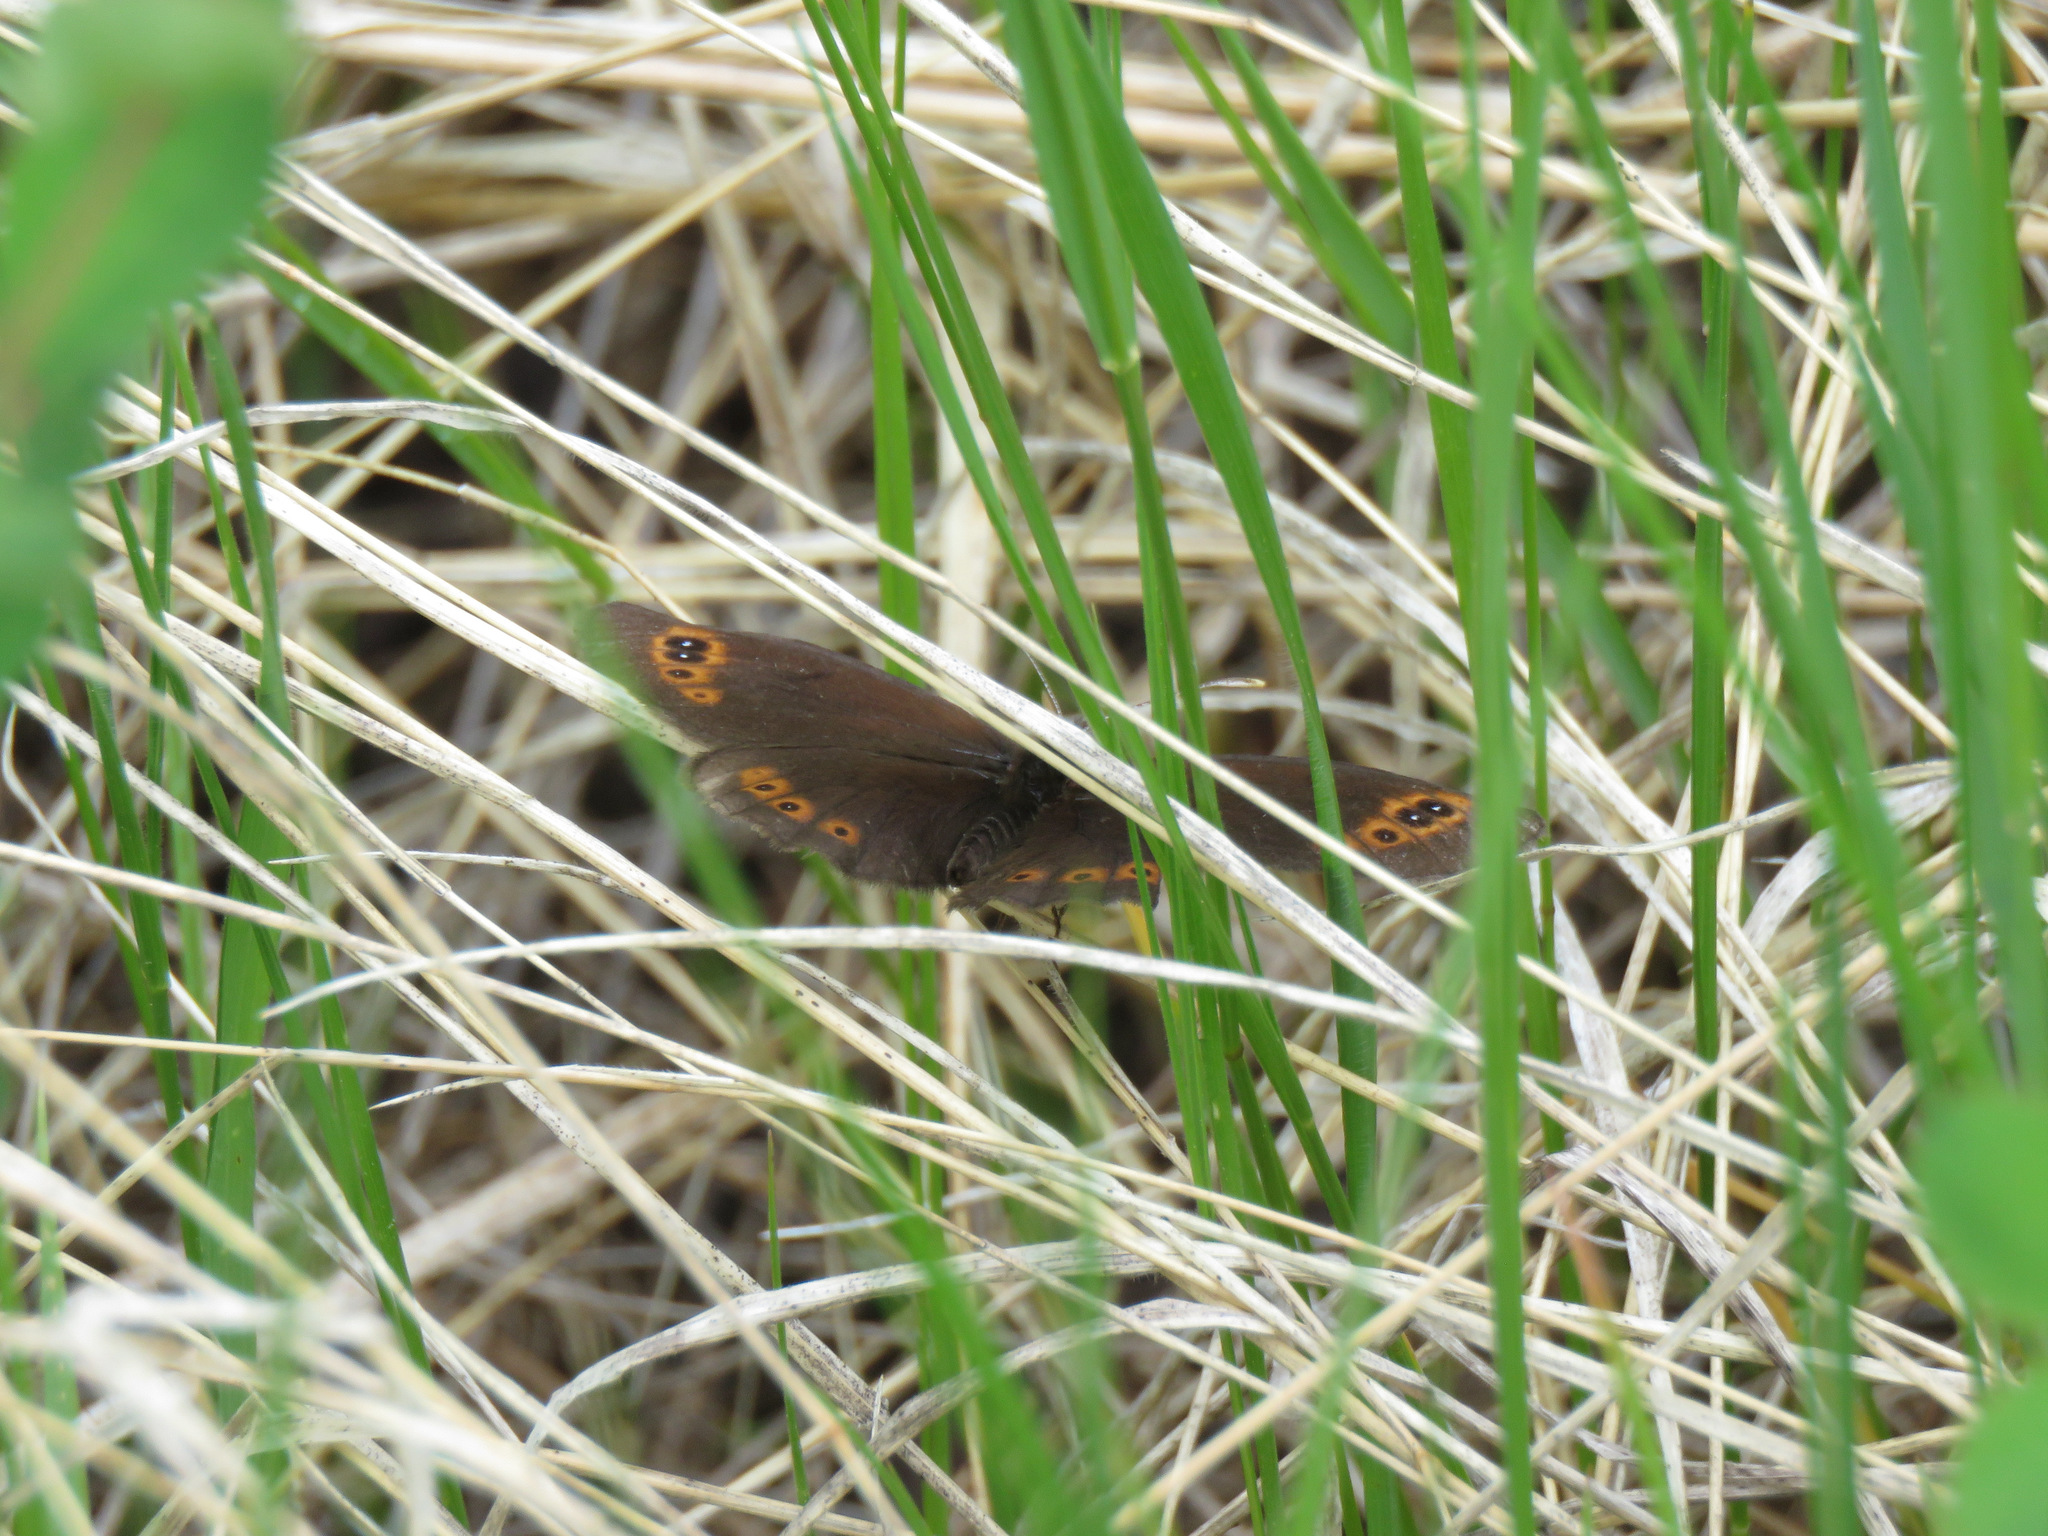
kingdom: Animalia
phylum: Arthropoda
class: Insecta
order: Lepidoptera
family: Nymphalidae
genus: Erebia
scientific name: Erebia epipsodea
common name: Common alpine
